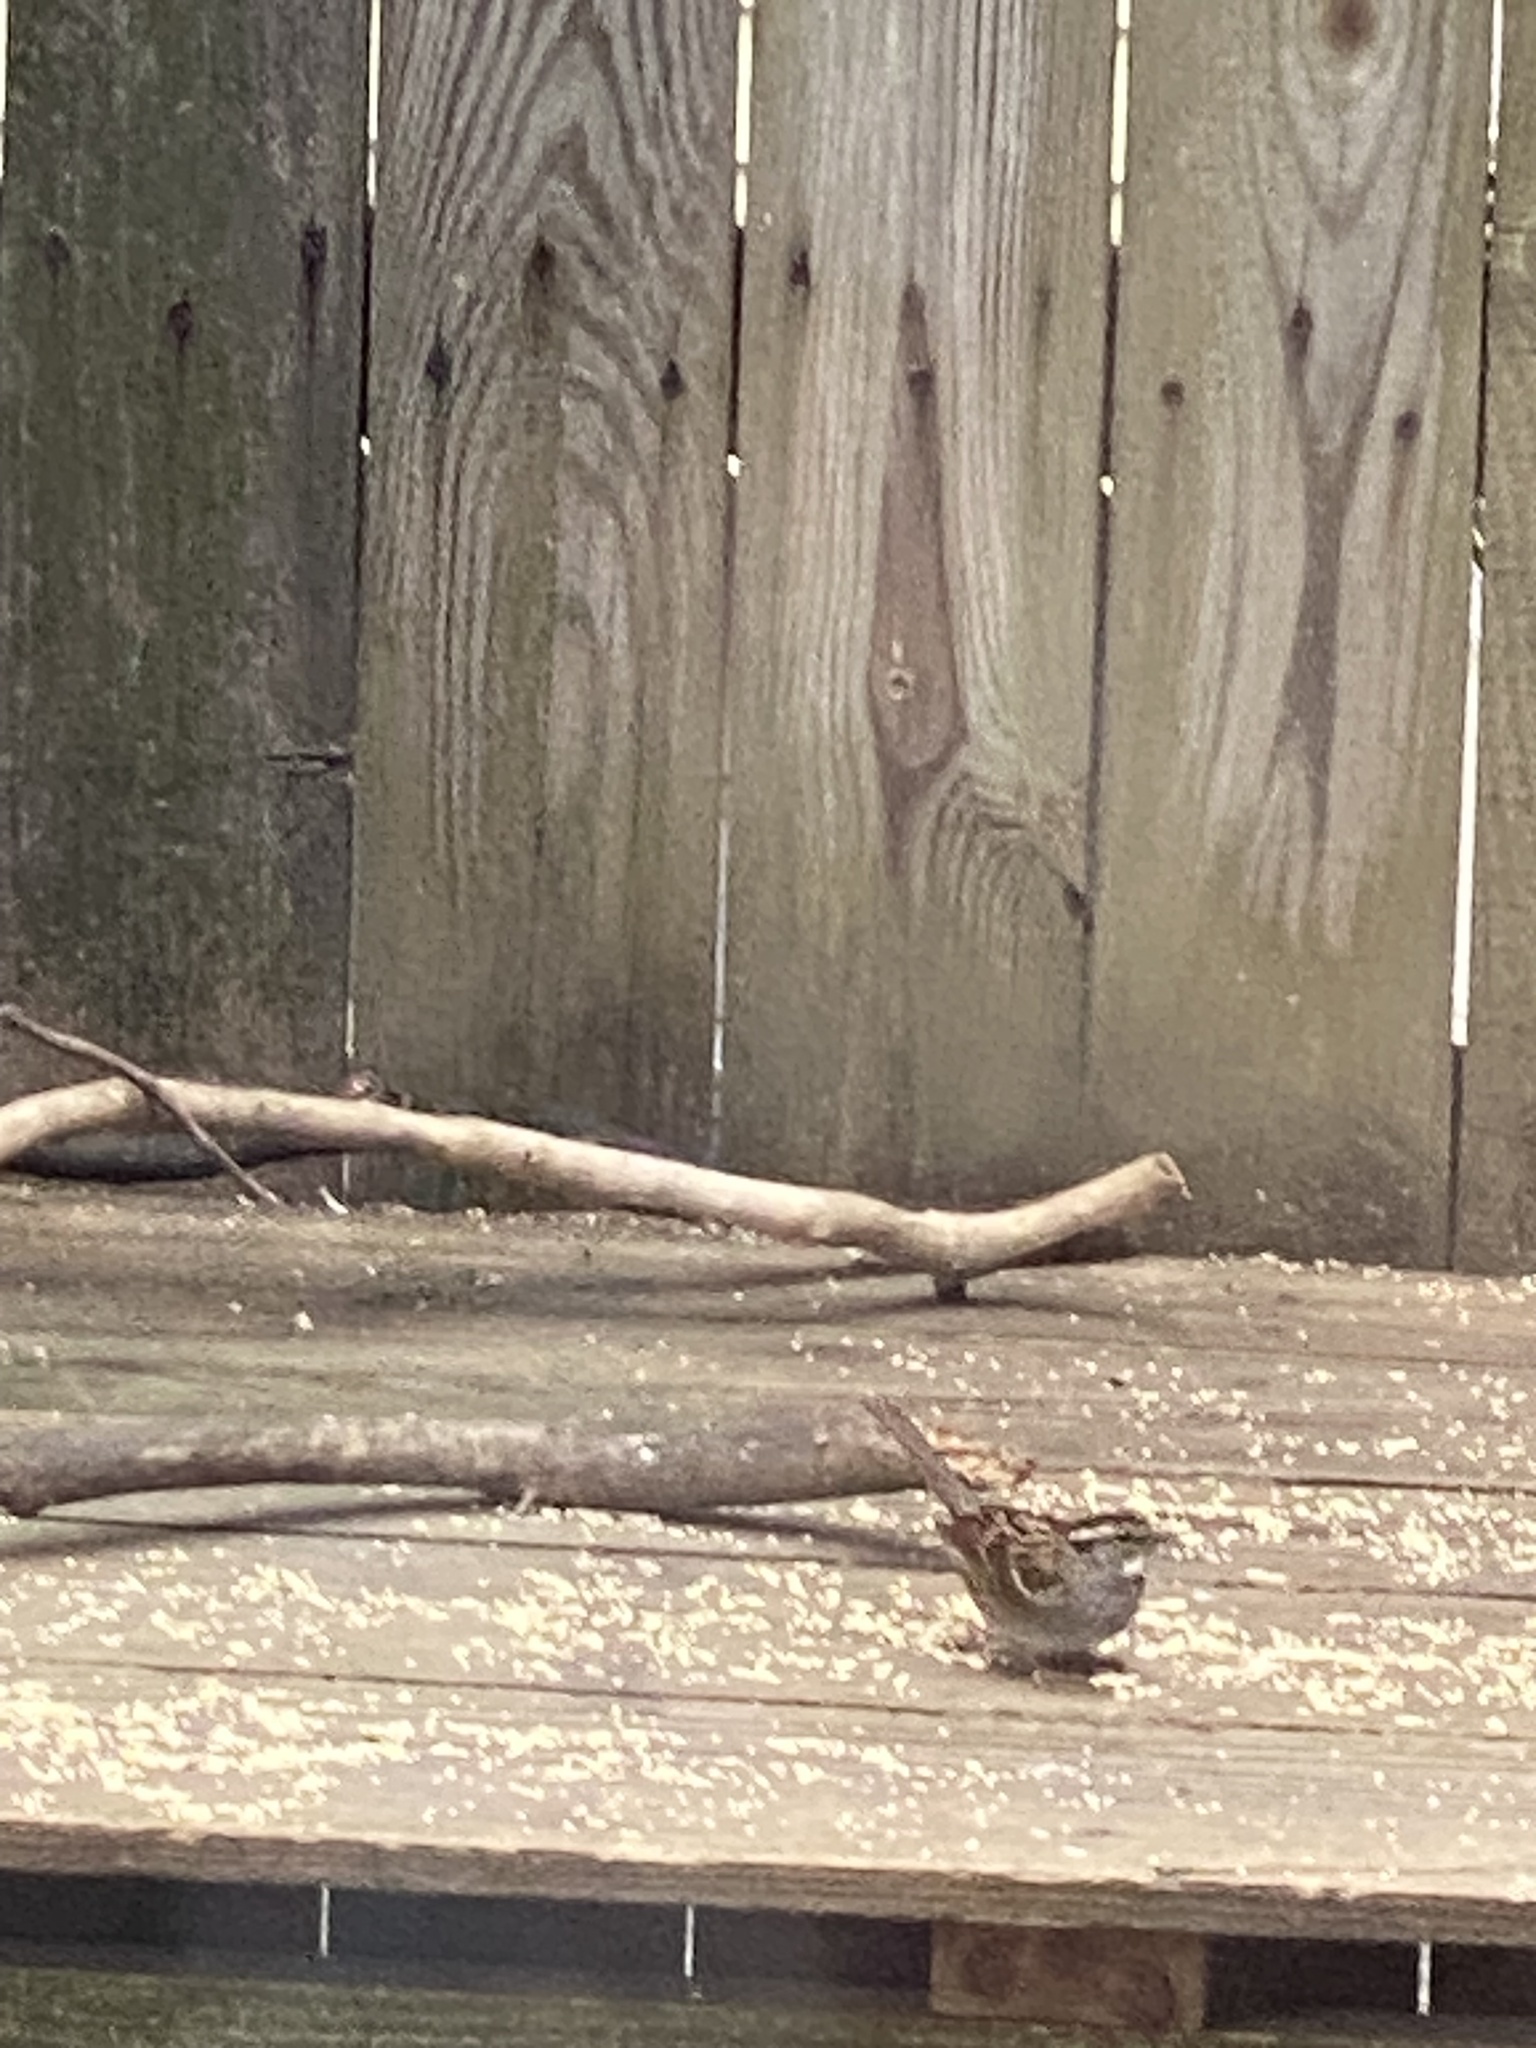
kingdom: Animalia
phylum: Chordata
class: Aves
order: Passeriformes
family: Passerellidae
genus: Zonotrichia
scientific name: Zonotrichia albicollis
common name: White-throated sparrow
